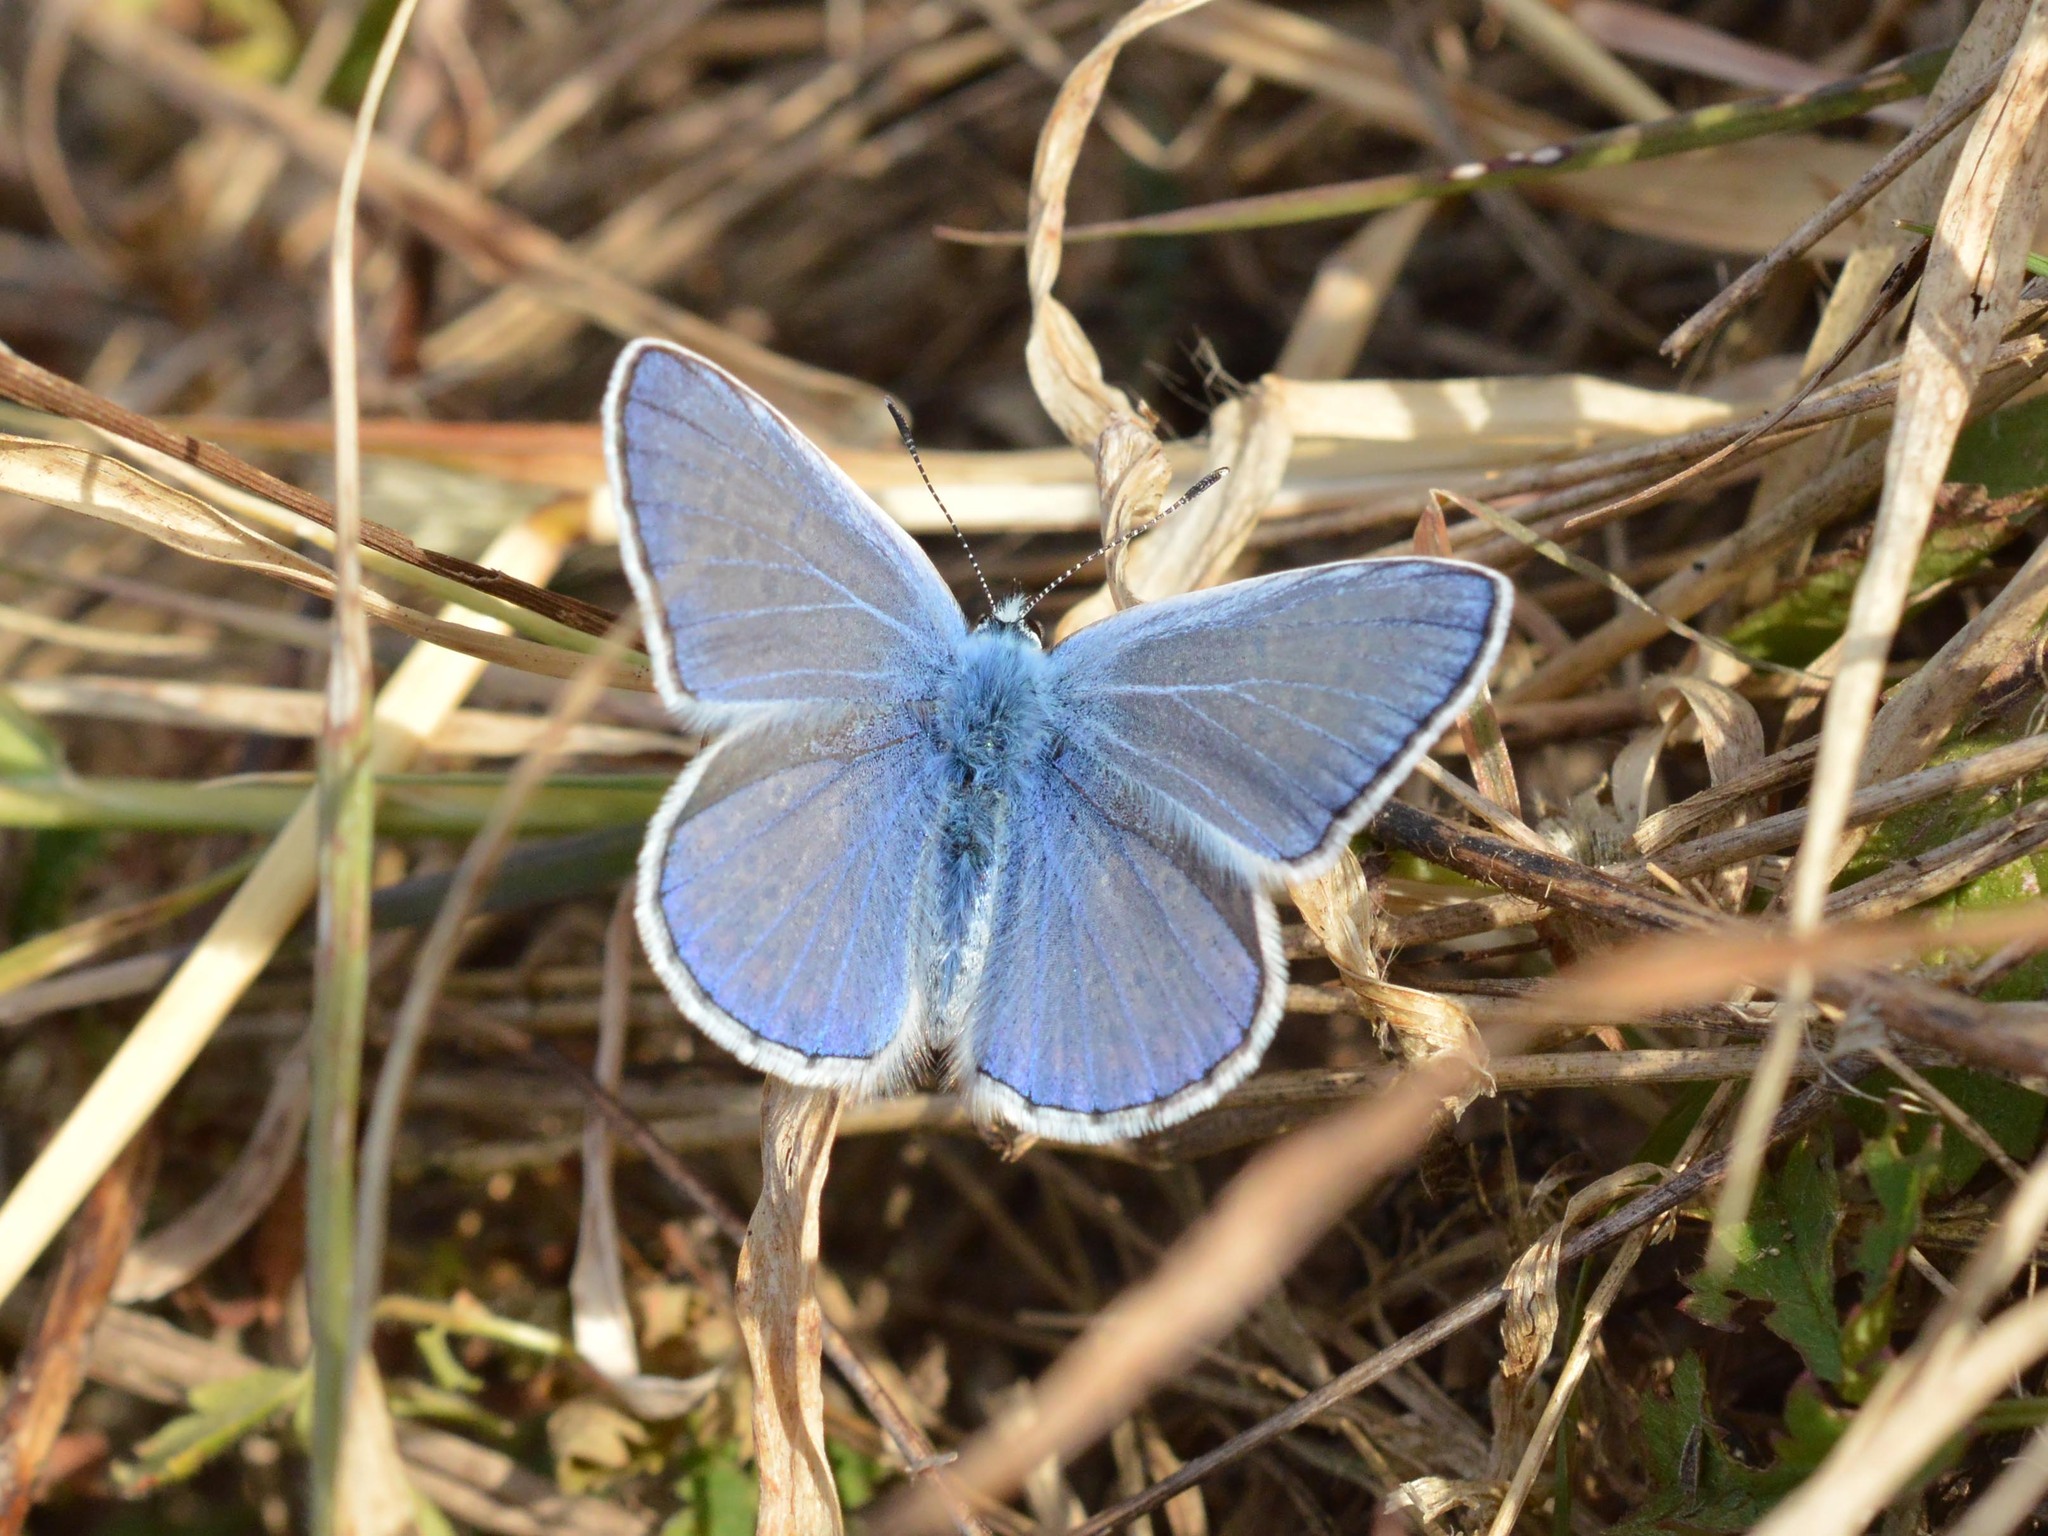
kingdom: Animalia
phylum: Arthropoda
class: Insecta
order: Lepidoptera
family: Lycaenidae
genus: Polyommatus
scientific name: Polyommatus icarus
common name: Common blue
